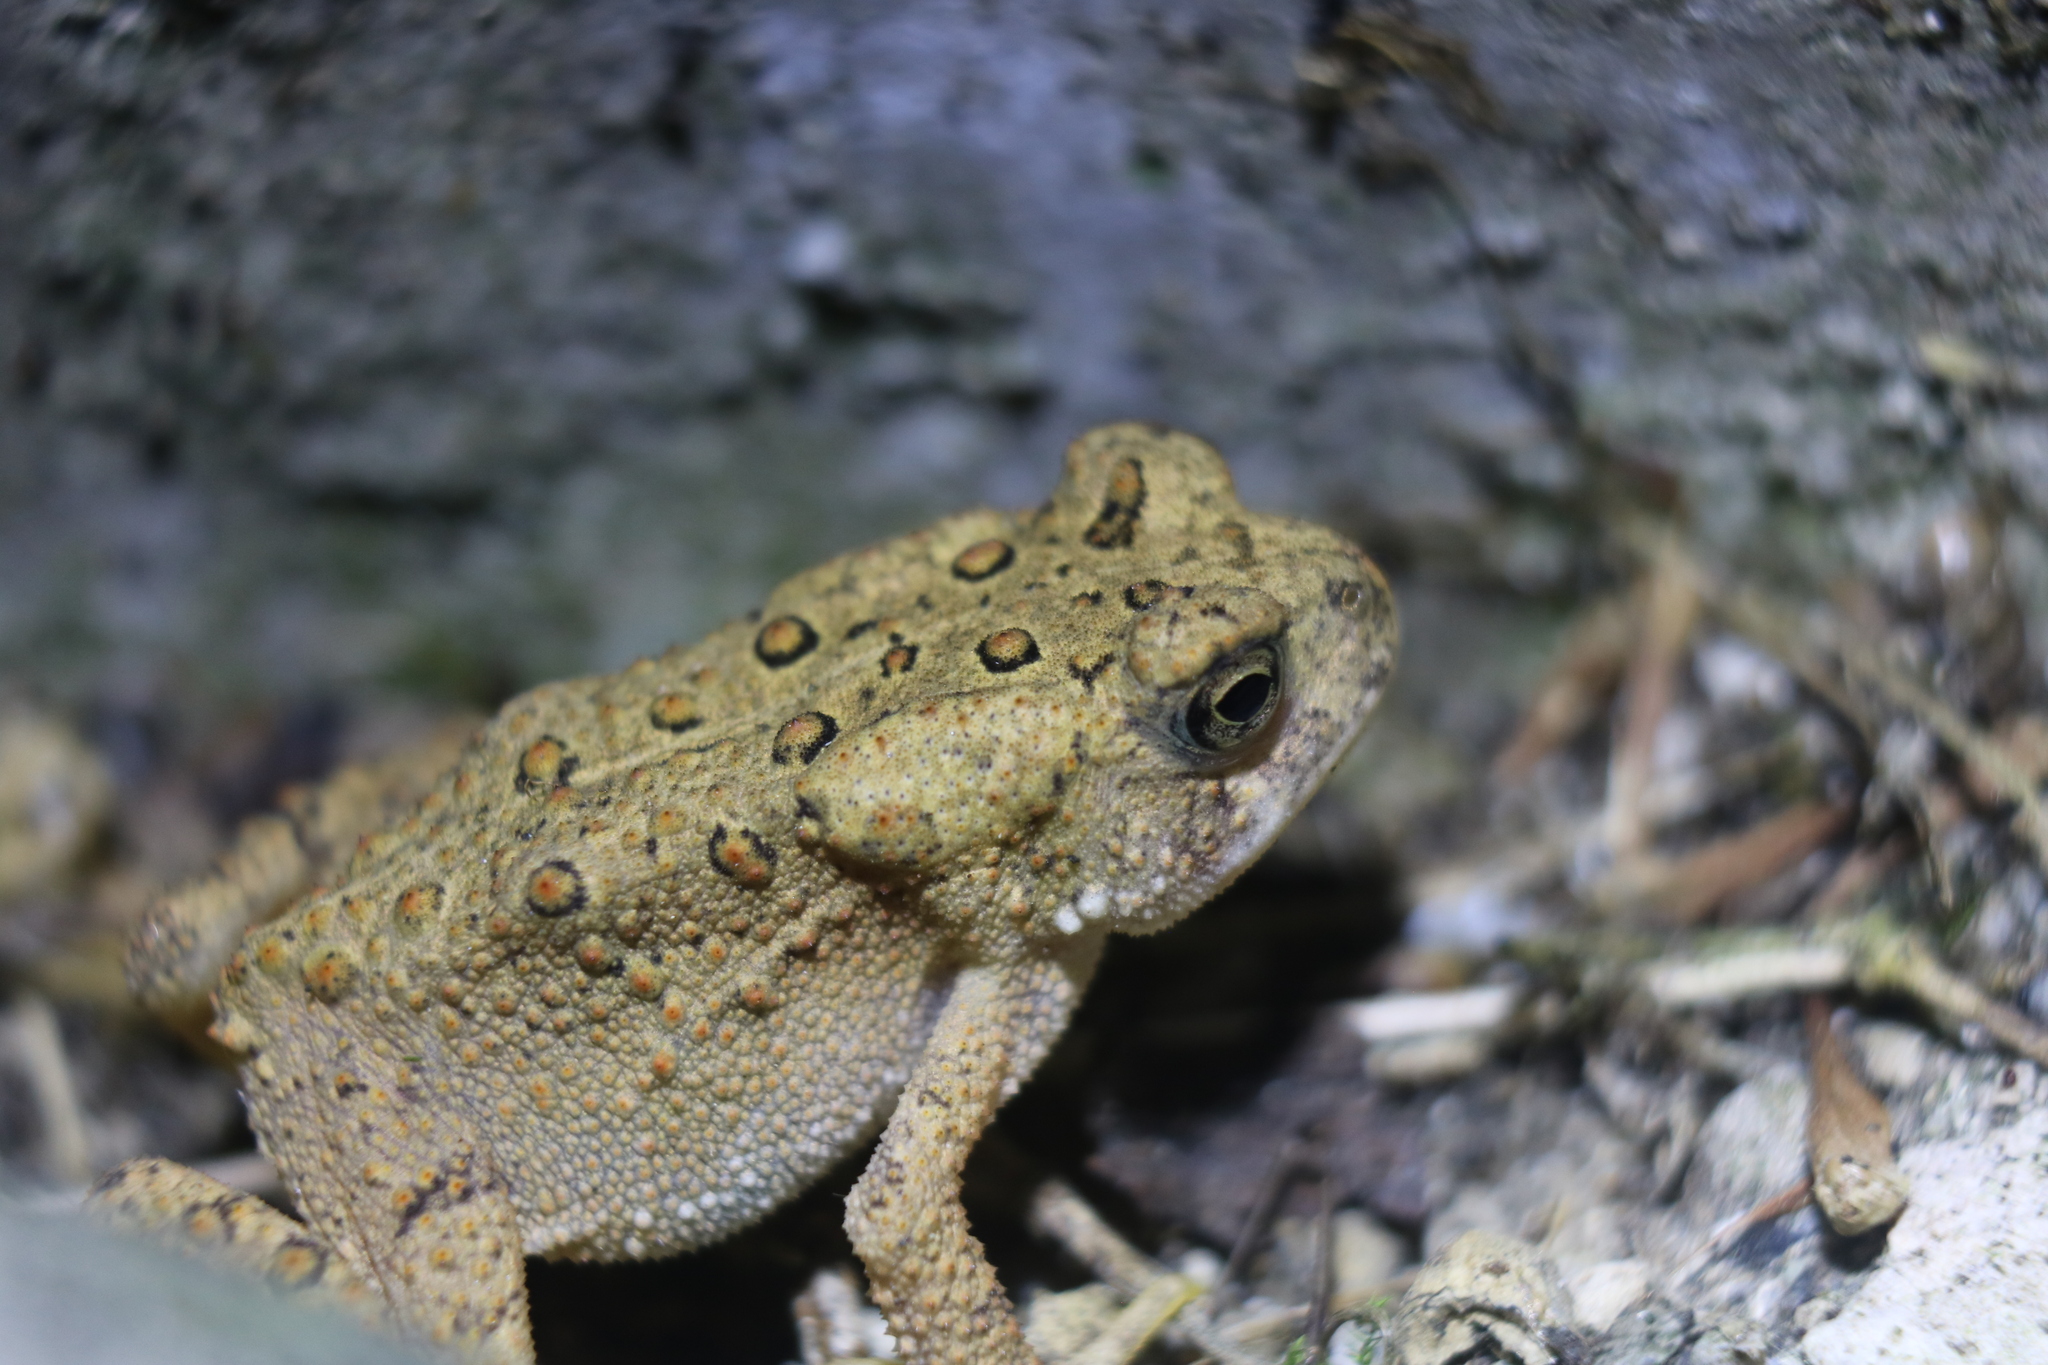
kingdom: Animalia
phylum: Chordata
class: Amphibia
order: Anura
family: Bufonidae
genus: Anaxyrus
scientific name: Anaxyrus americanus
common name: American toad
